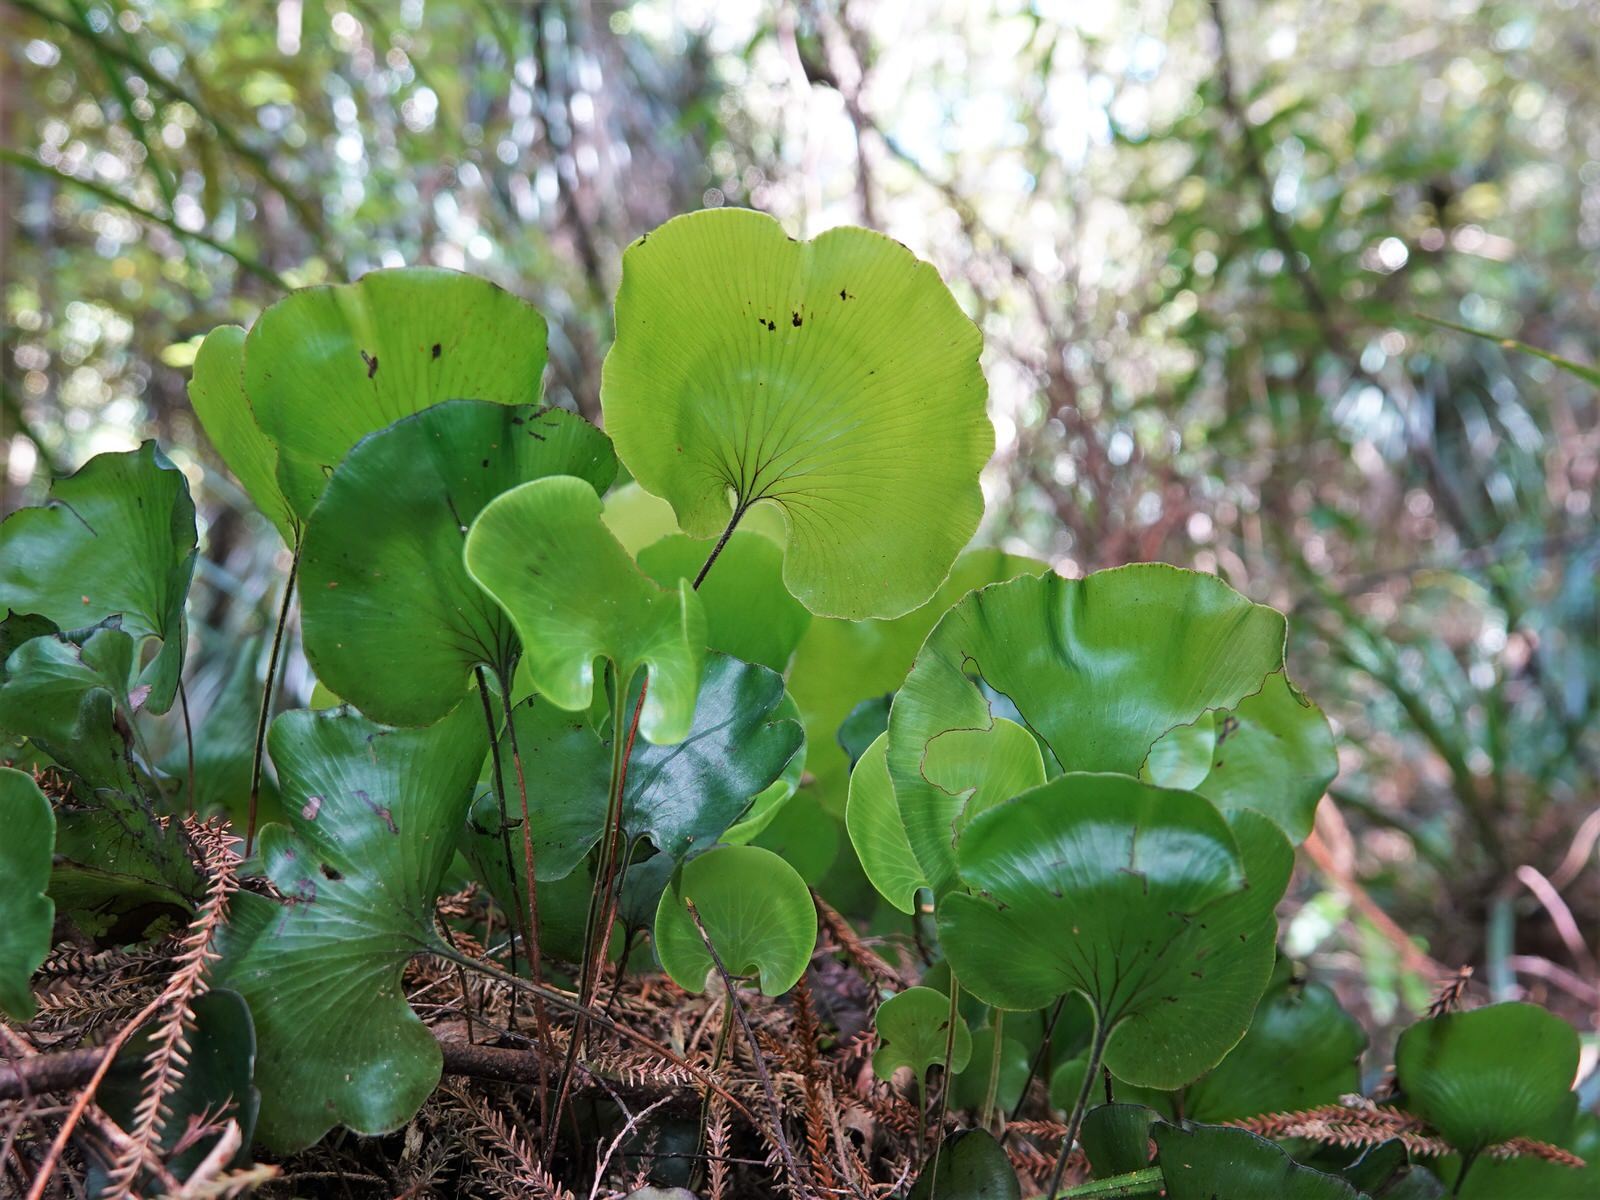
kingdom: Plantae
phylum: Tracheophyta
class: Polypodiopsida
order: Hymenophyllales
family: Hymenophyllaceae
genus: Hymenophyllum
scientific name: Hymenophyllum nephrophyllum
